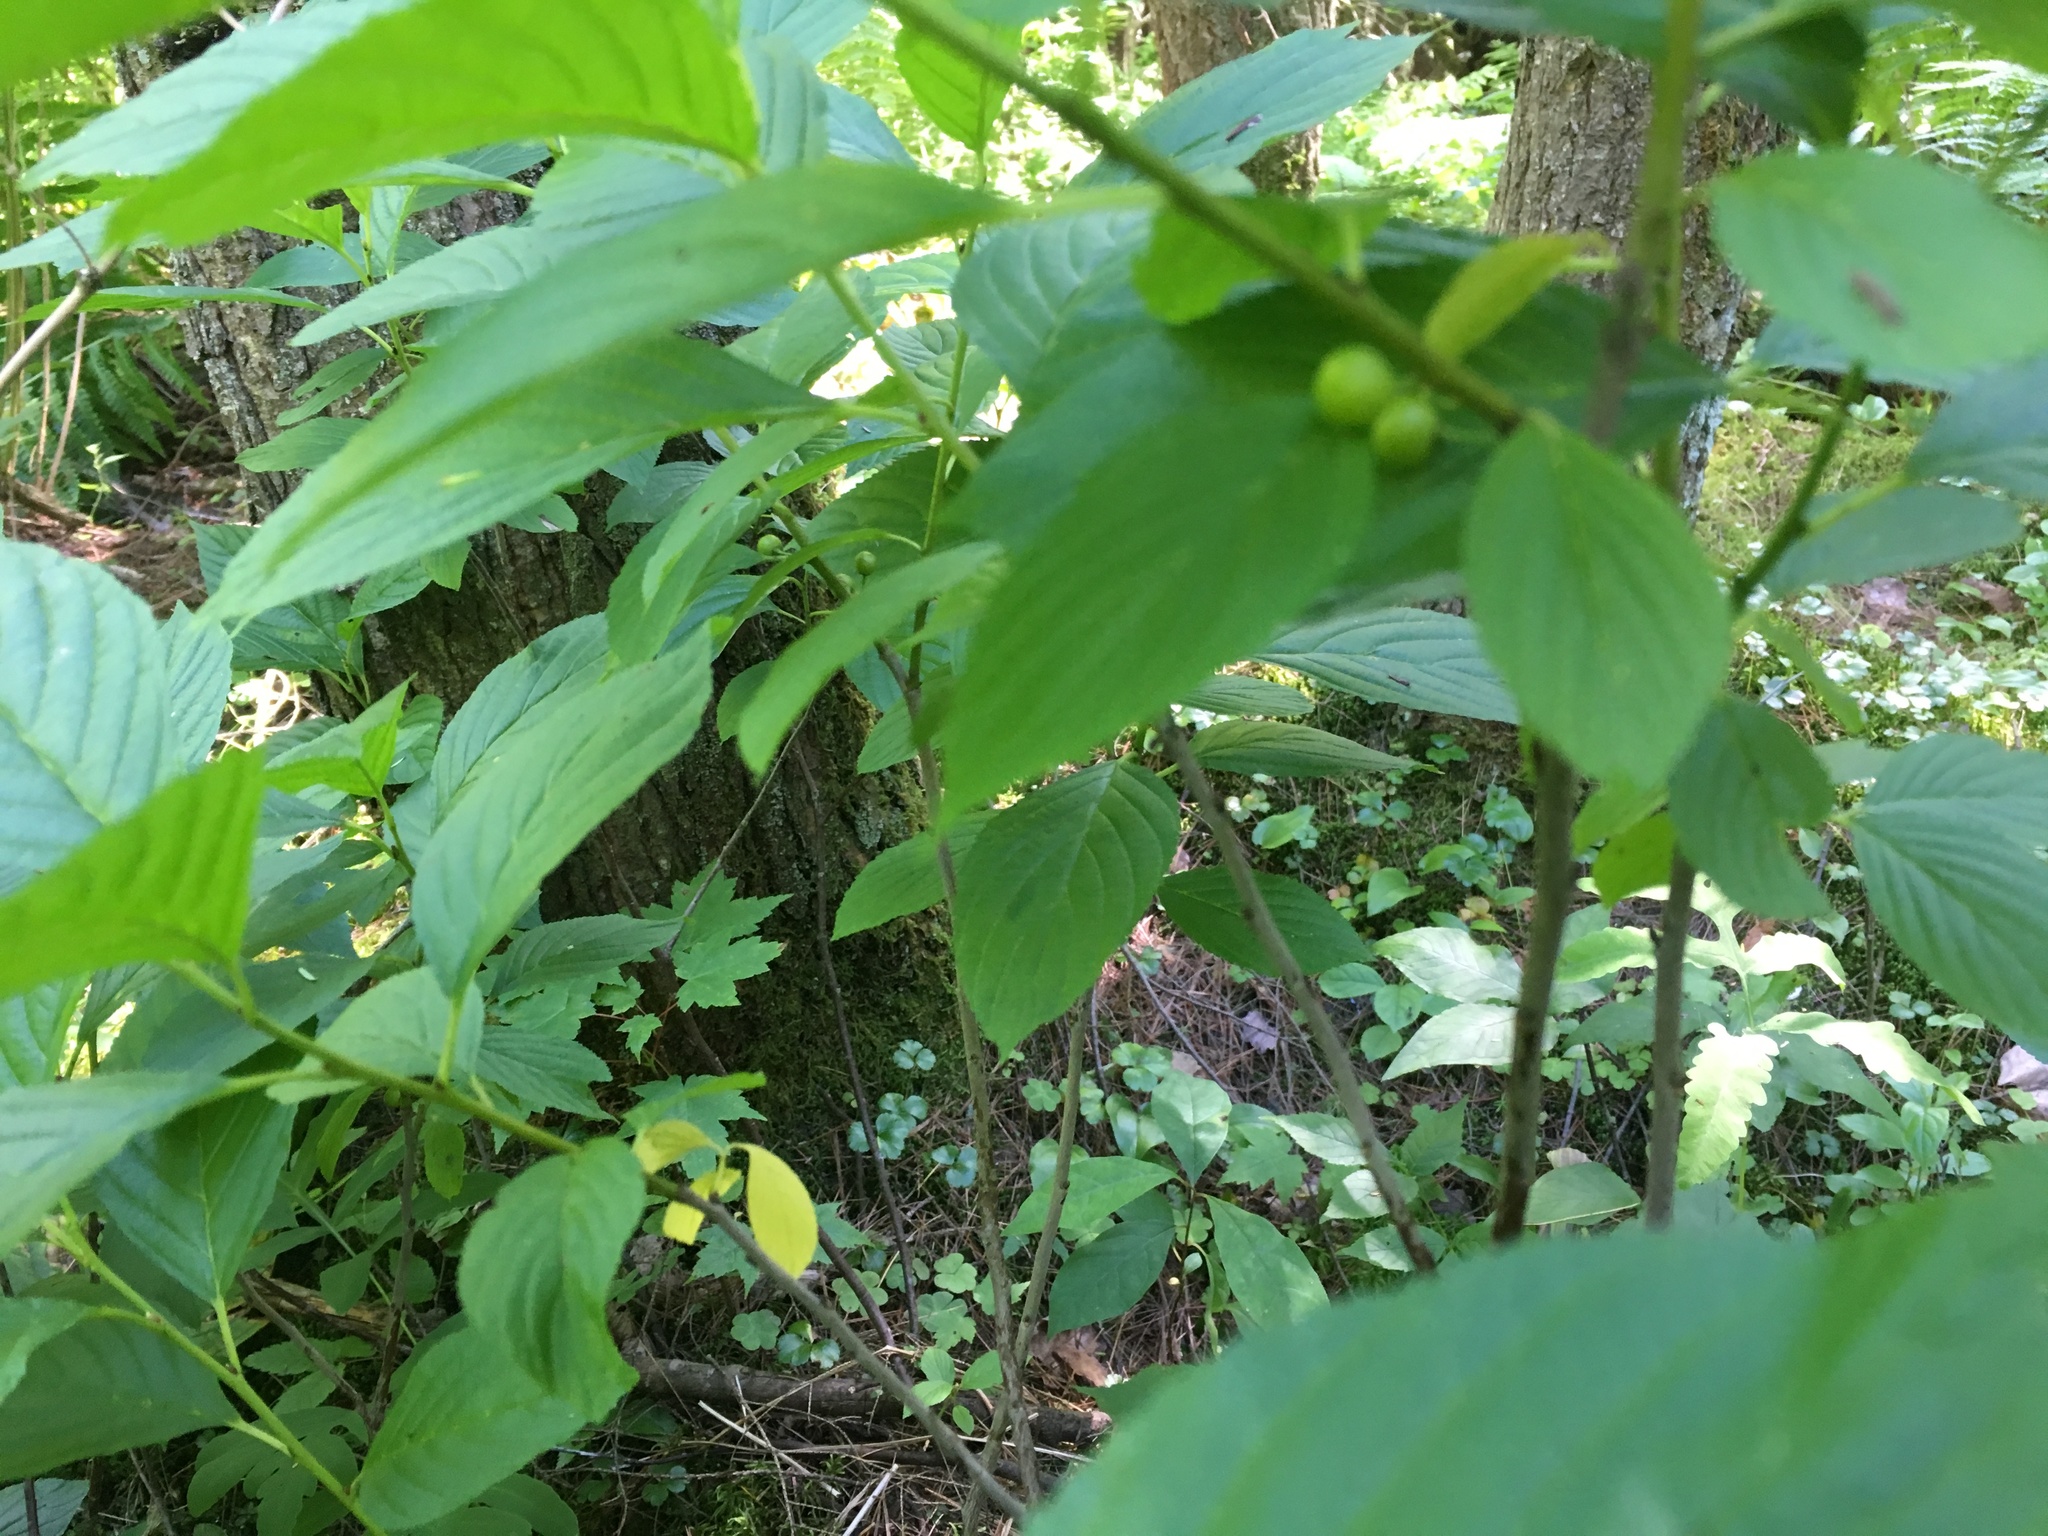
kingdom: Plantae
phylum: Tracheophyta
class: Magnoliopsida
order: Rosales
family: Rhamnaceae
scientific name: Rhamnaceae
